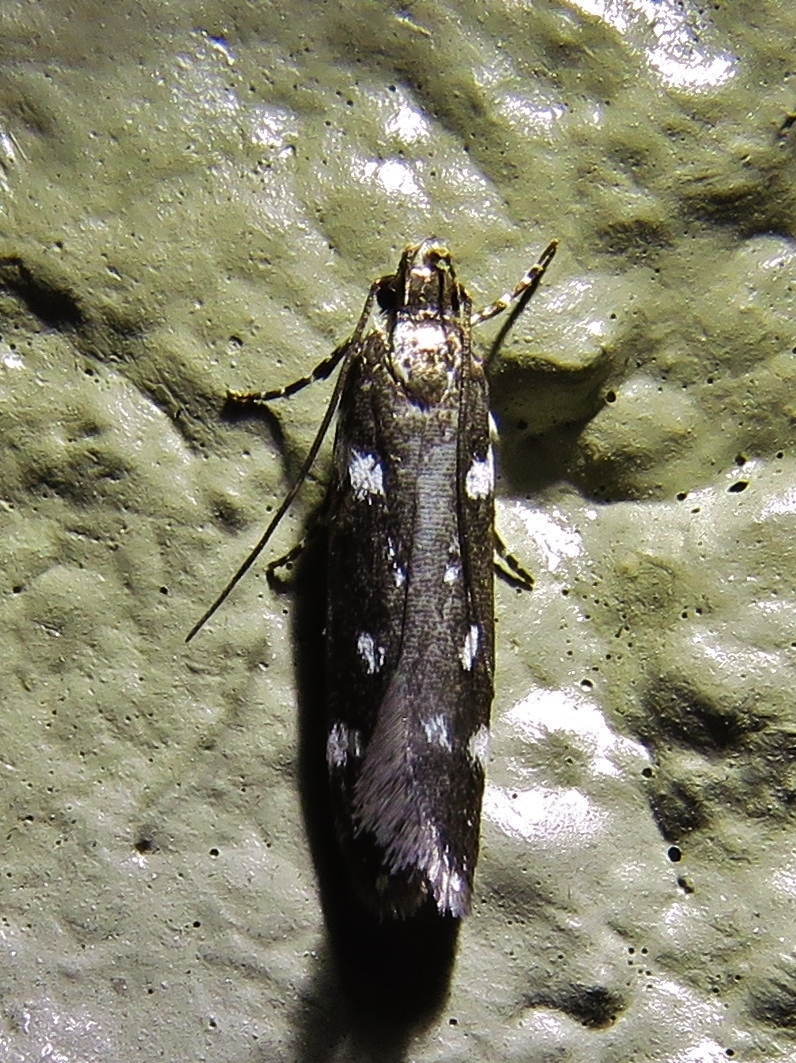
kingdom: Animalia
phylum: Arthropoda
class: Insecta
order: Lepidoptera
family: Gelechiidae
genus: Aroga
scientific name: Aroga compositella
